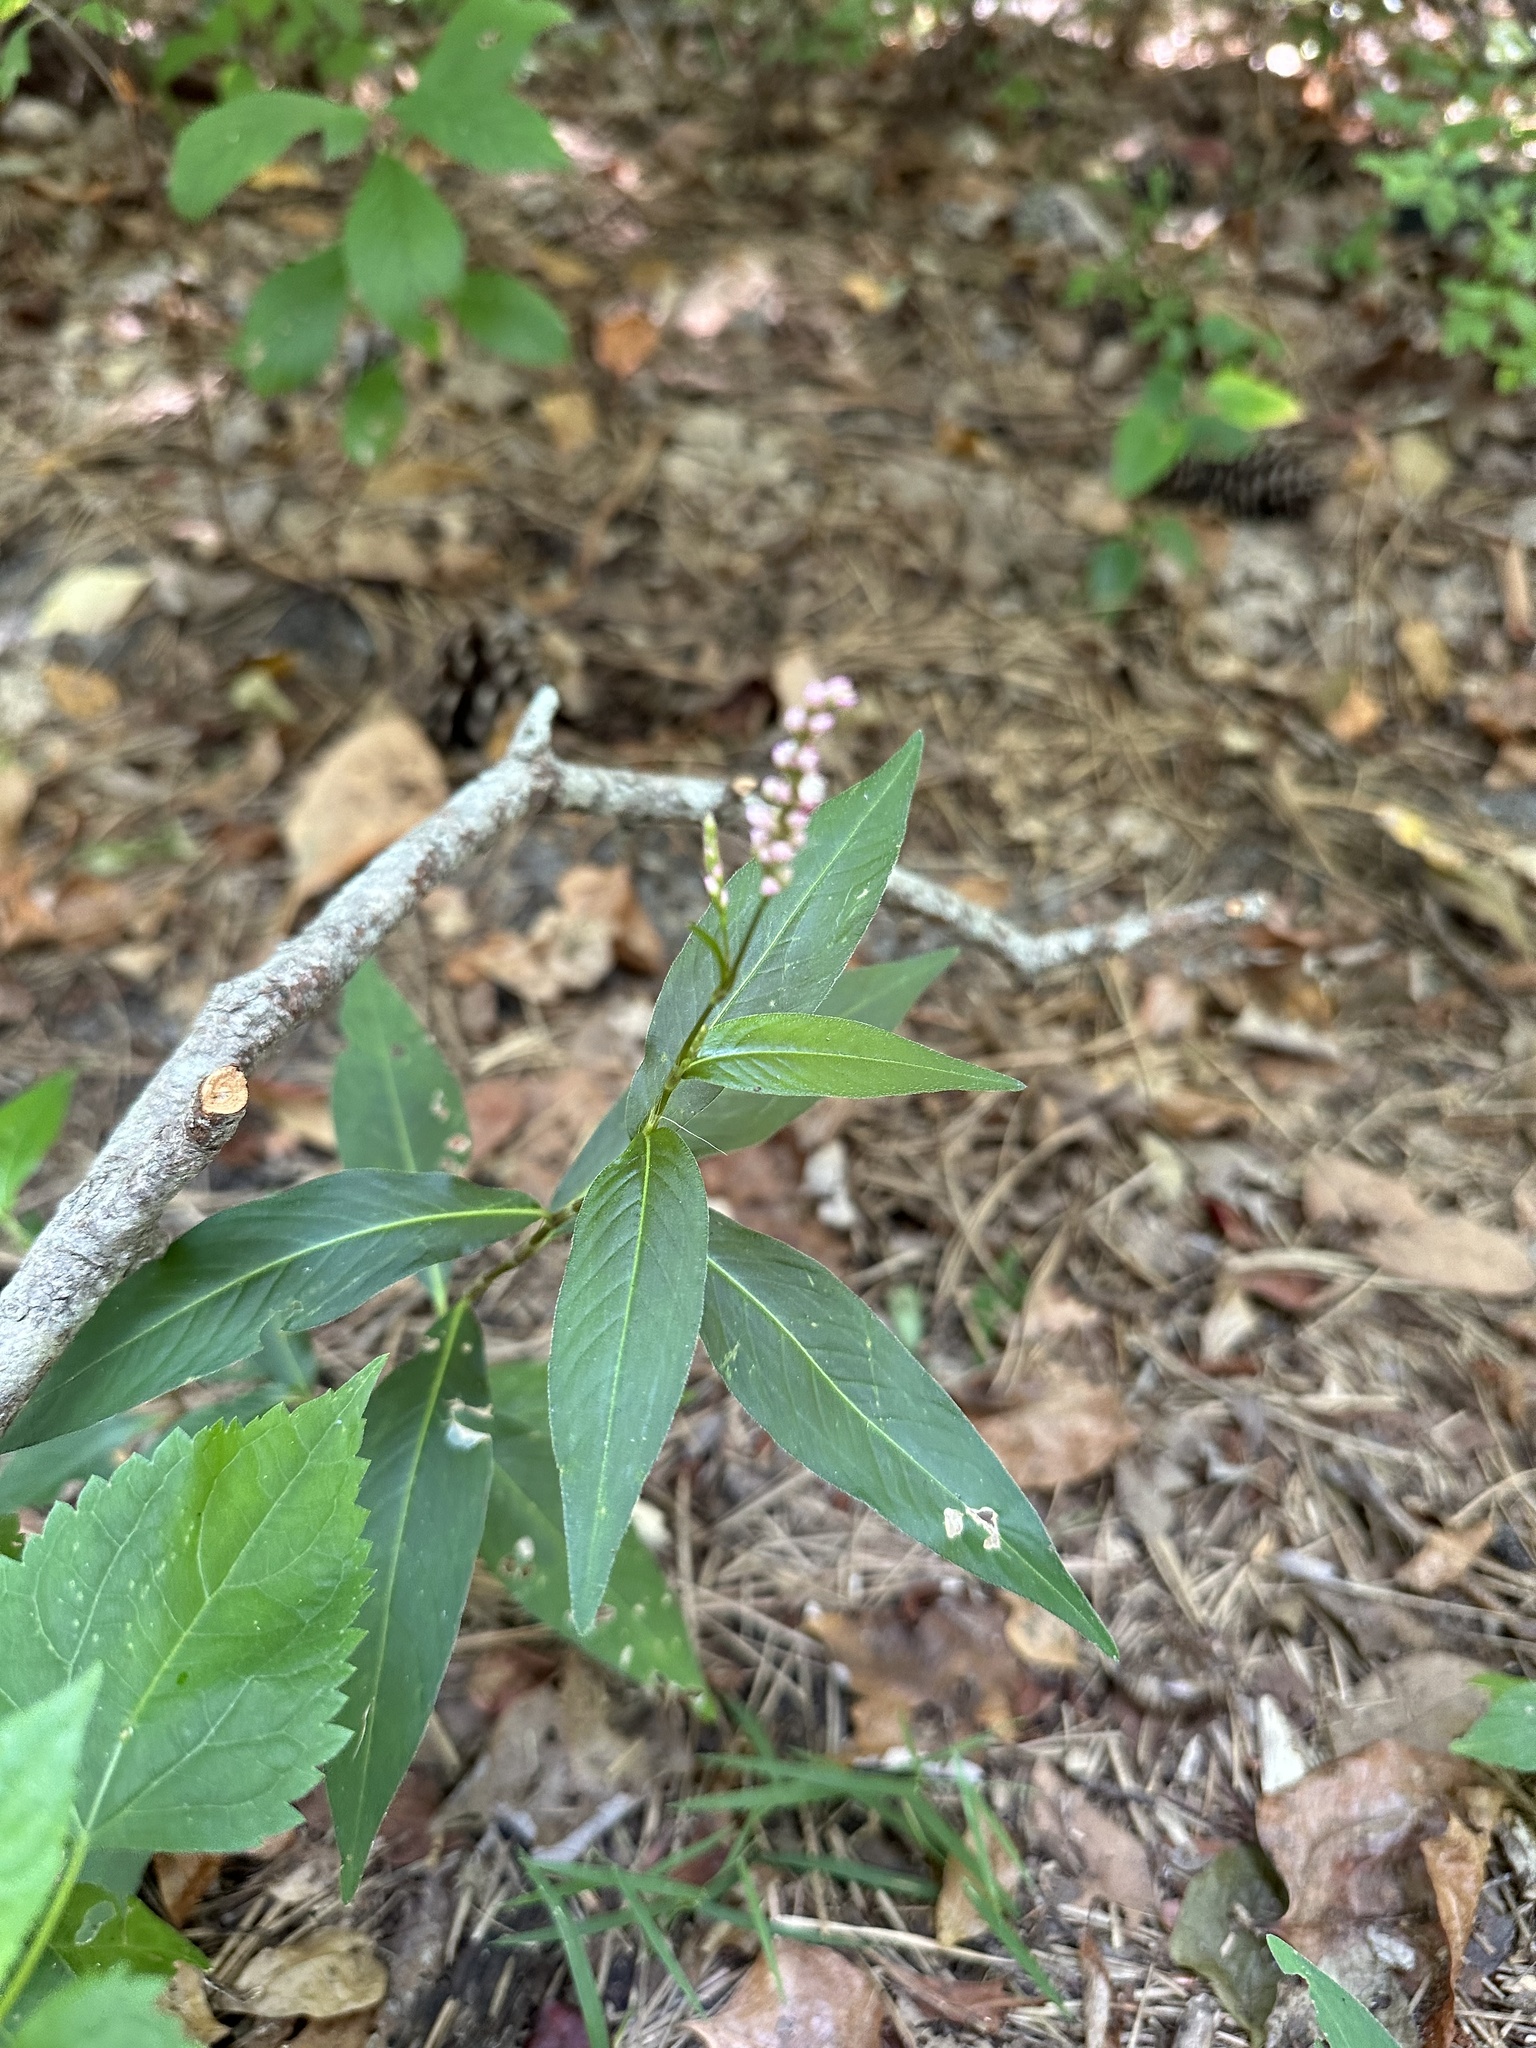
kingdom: Plantae
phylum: Tracheophyta
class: Magnoliopsida
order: Caryophyllales
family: Polygonaceae
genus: Persicaria
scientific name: Persicaria longiseta
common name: Bristly lady's-thumb
